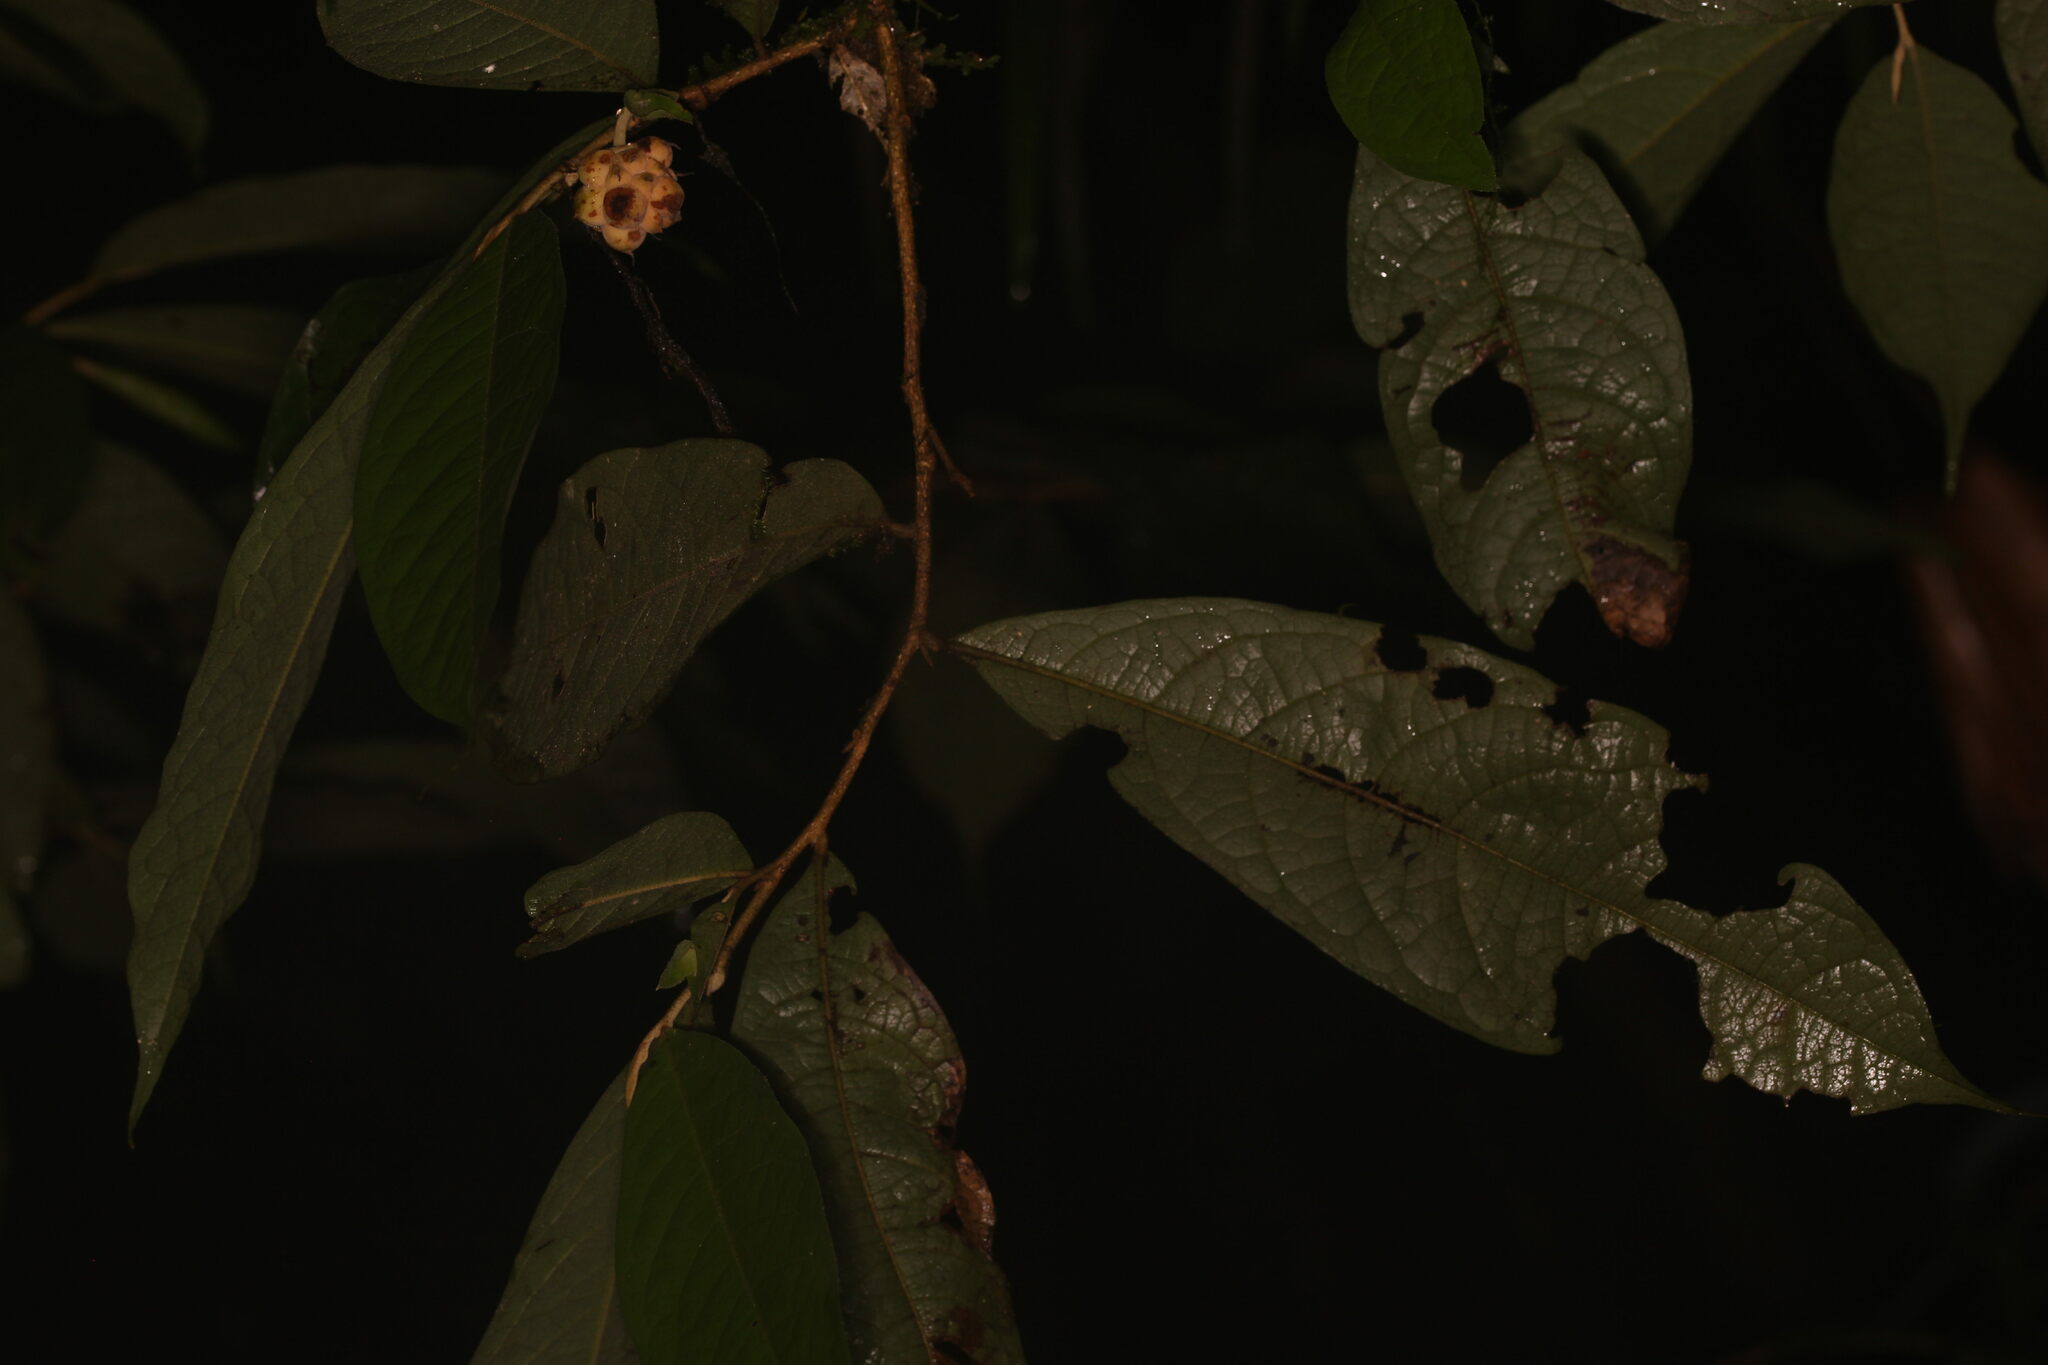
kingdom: Plantae
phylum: Tracheophyta
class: Magnoliopsida
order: Magnoliales
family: Annonaceae
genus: Duguetia
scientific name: Duguetia granvilleana
